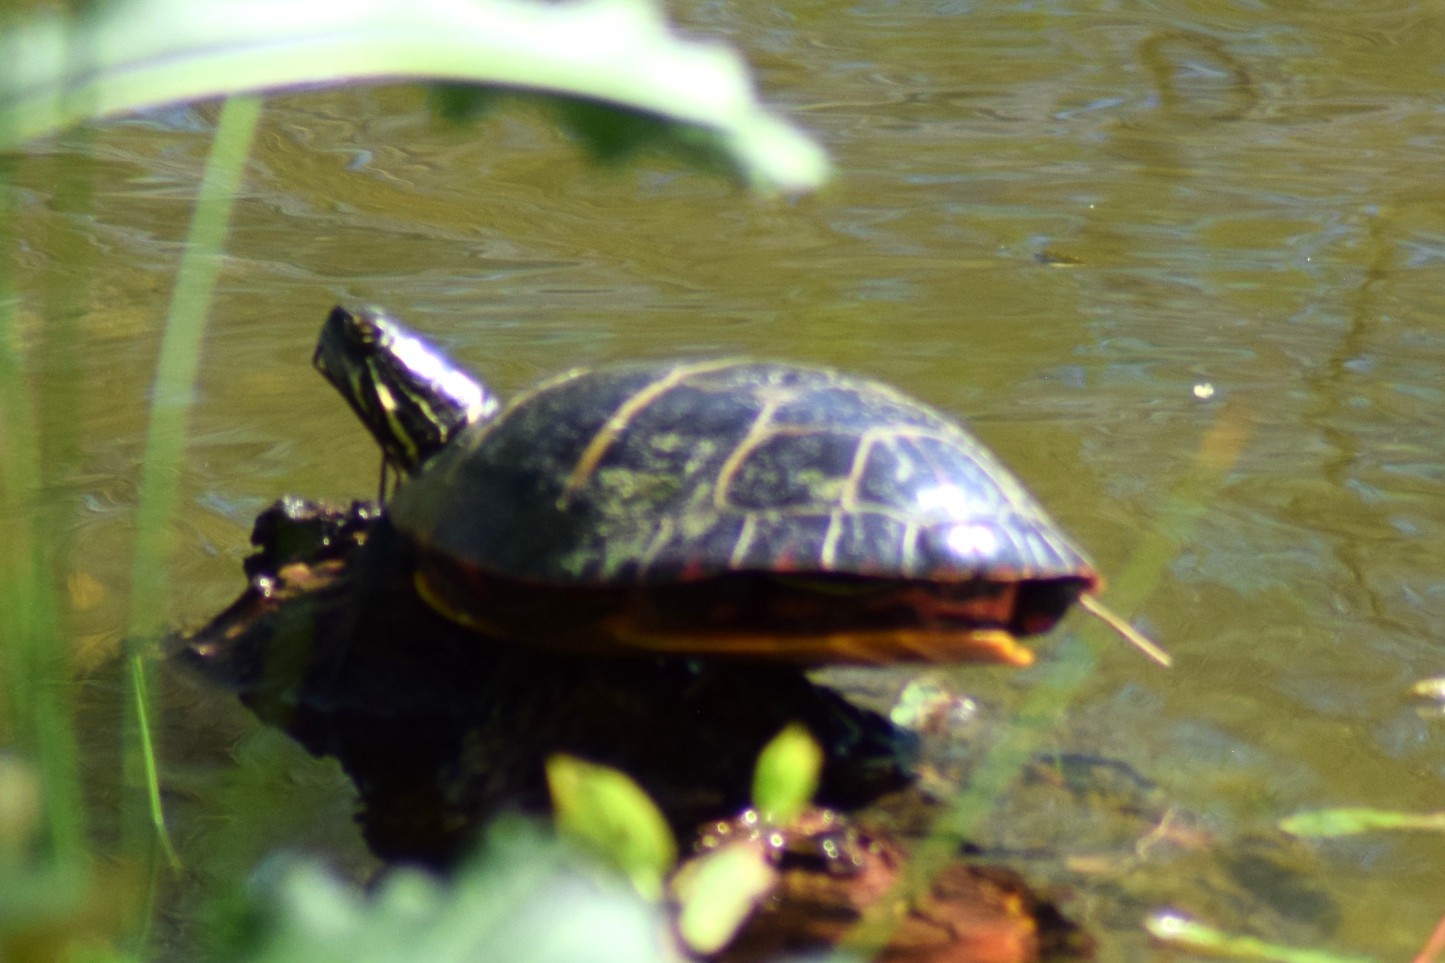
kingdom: Animalia
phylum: Chordata
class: Testudines
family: Emydidae
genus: Chrysemys
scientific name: Chrysemys picta
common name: Painted turtle
